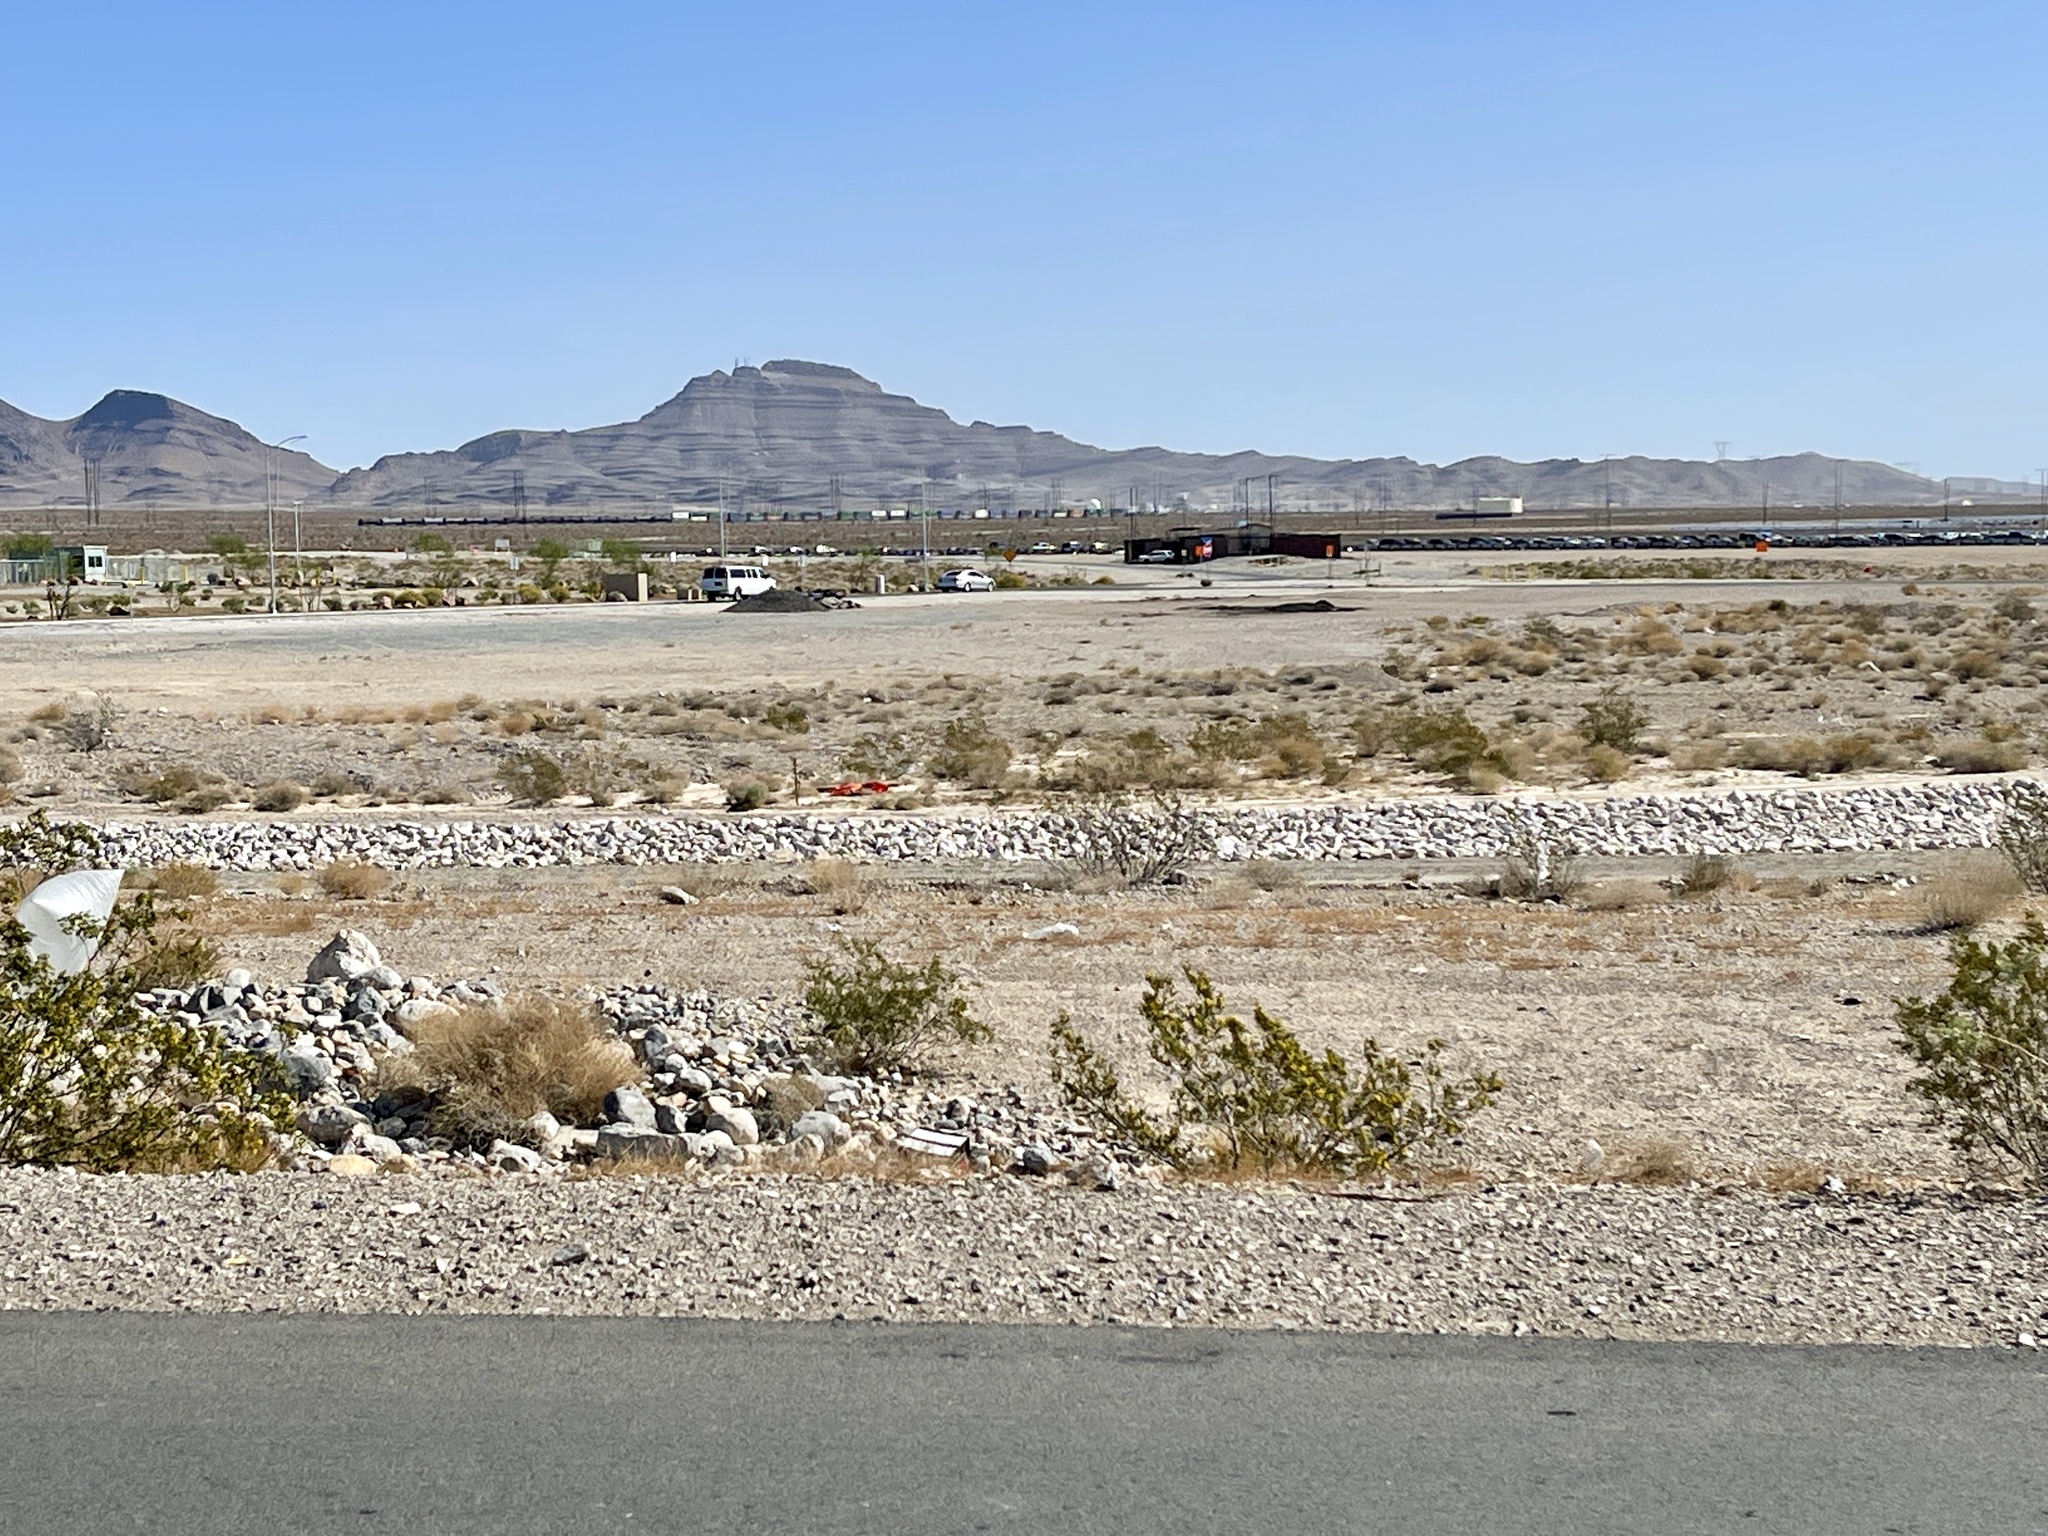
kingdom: Plantae
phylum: Tracheophyta
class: Magnoliopsida
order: Zygophyllales
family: Zygophyllaceae
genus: Larrea
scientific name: Larrea tridentata
